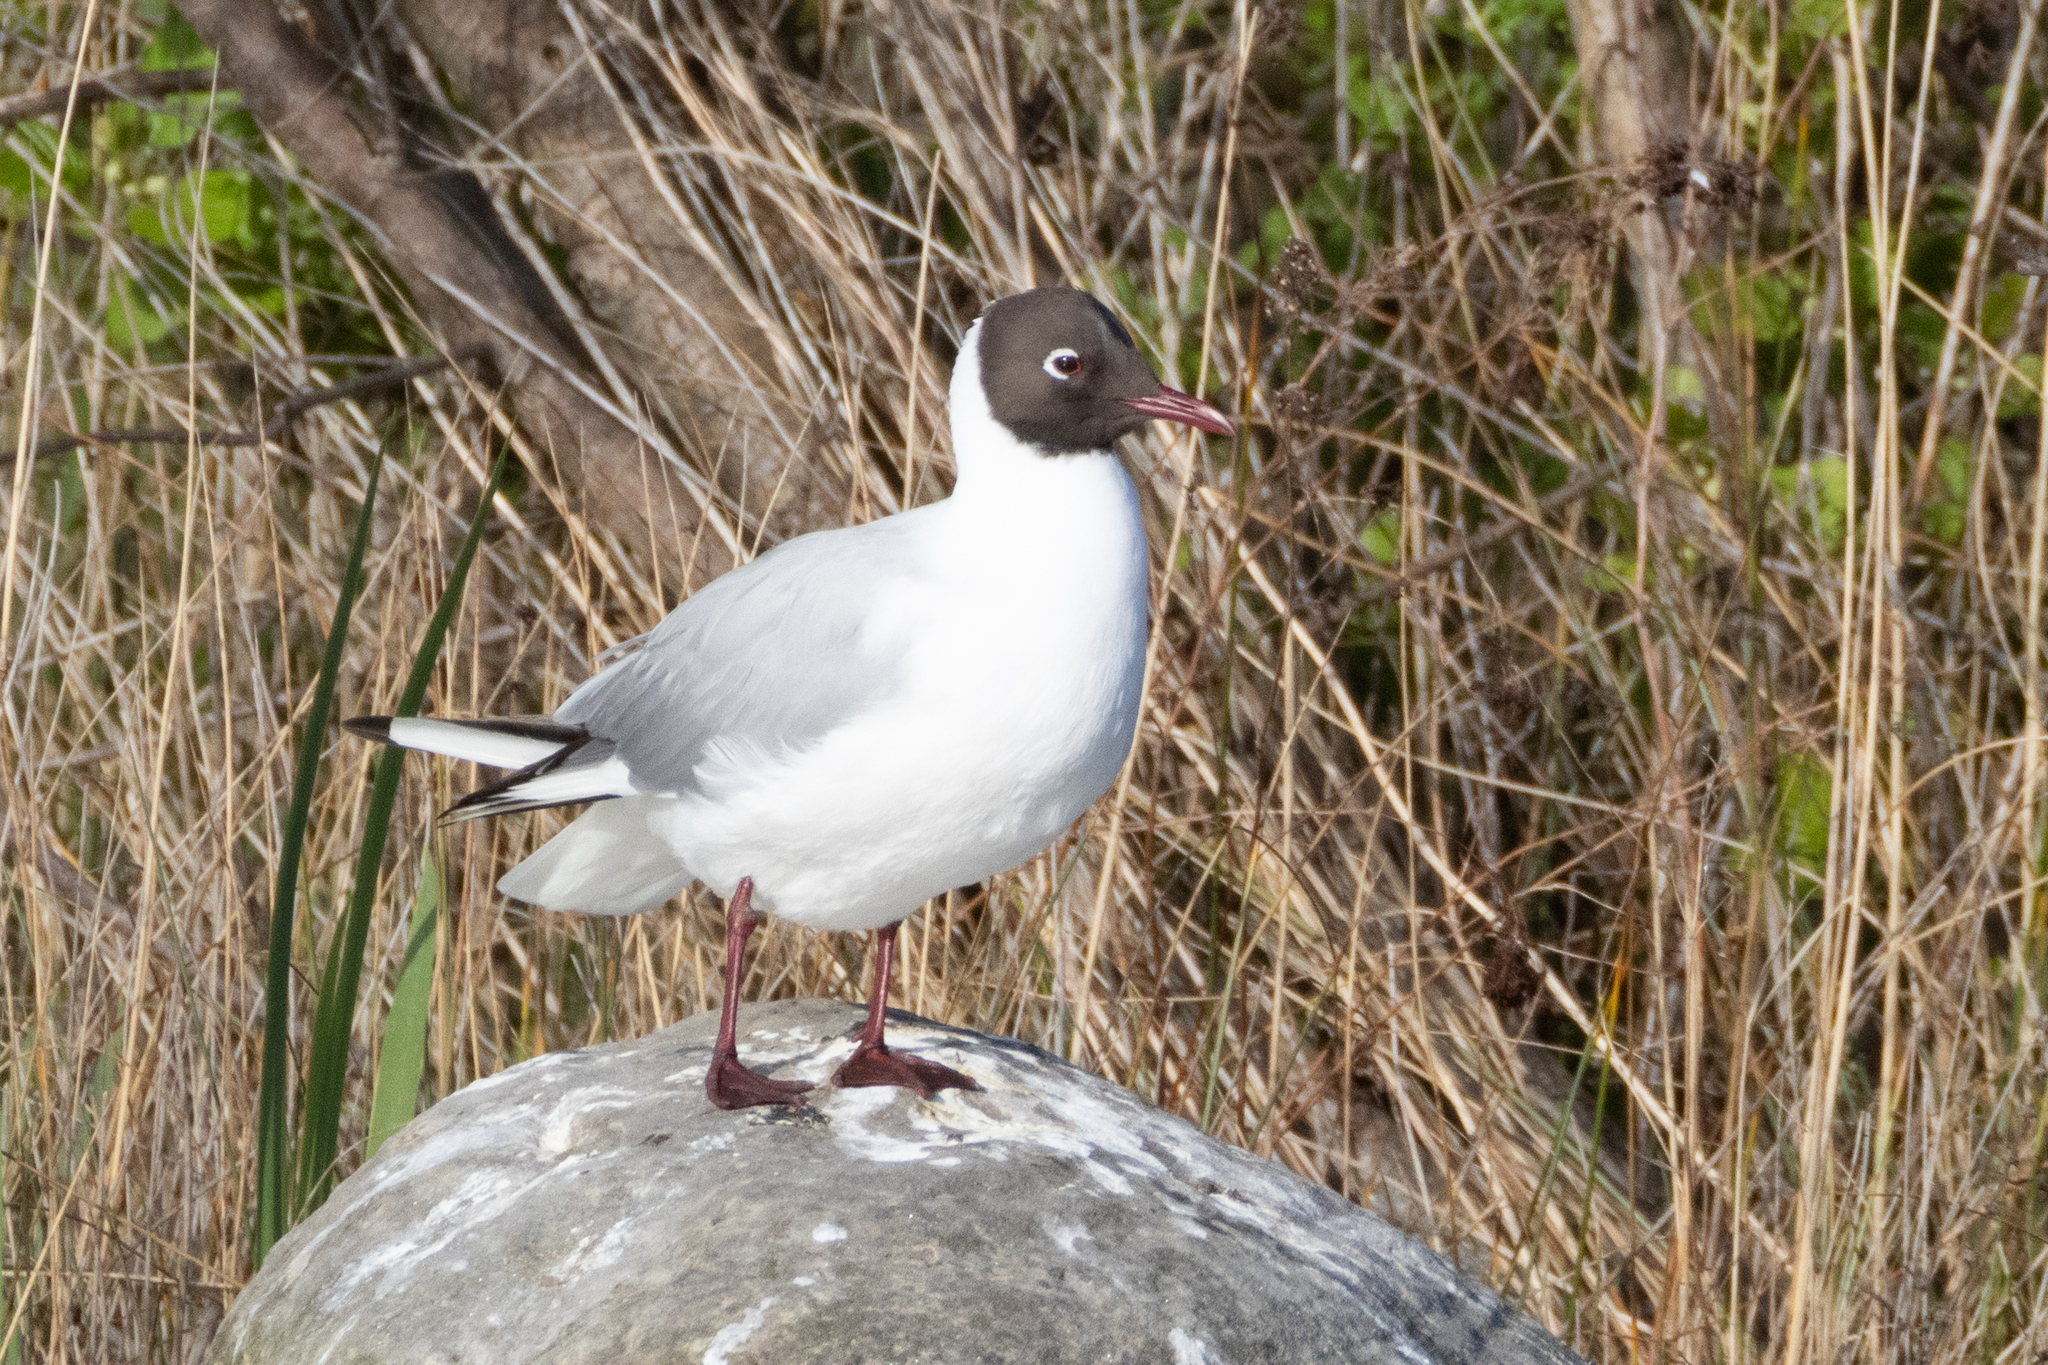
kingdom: Animalia
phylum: Chordata
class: Aves
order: Charadriiformes
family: Laridae
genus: Chroicocephalus
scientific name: Chroicocephalus ridibundus
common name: Black-headed gull
